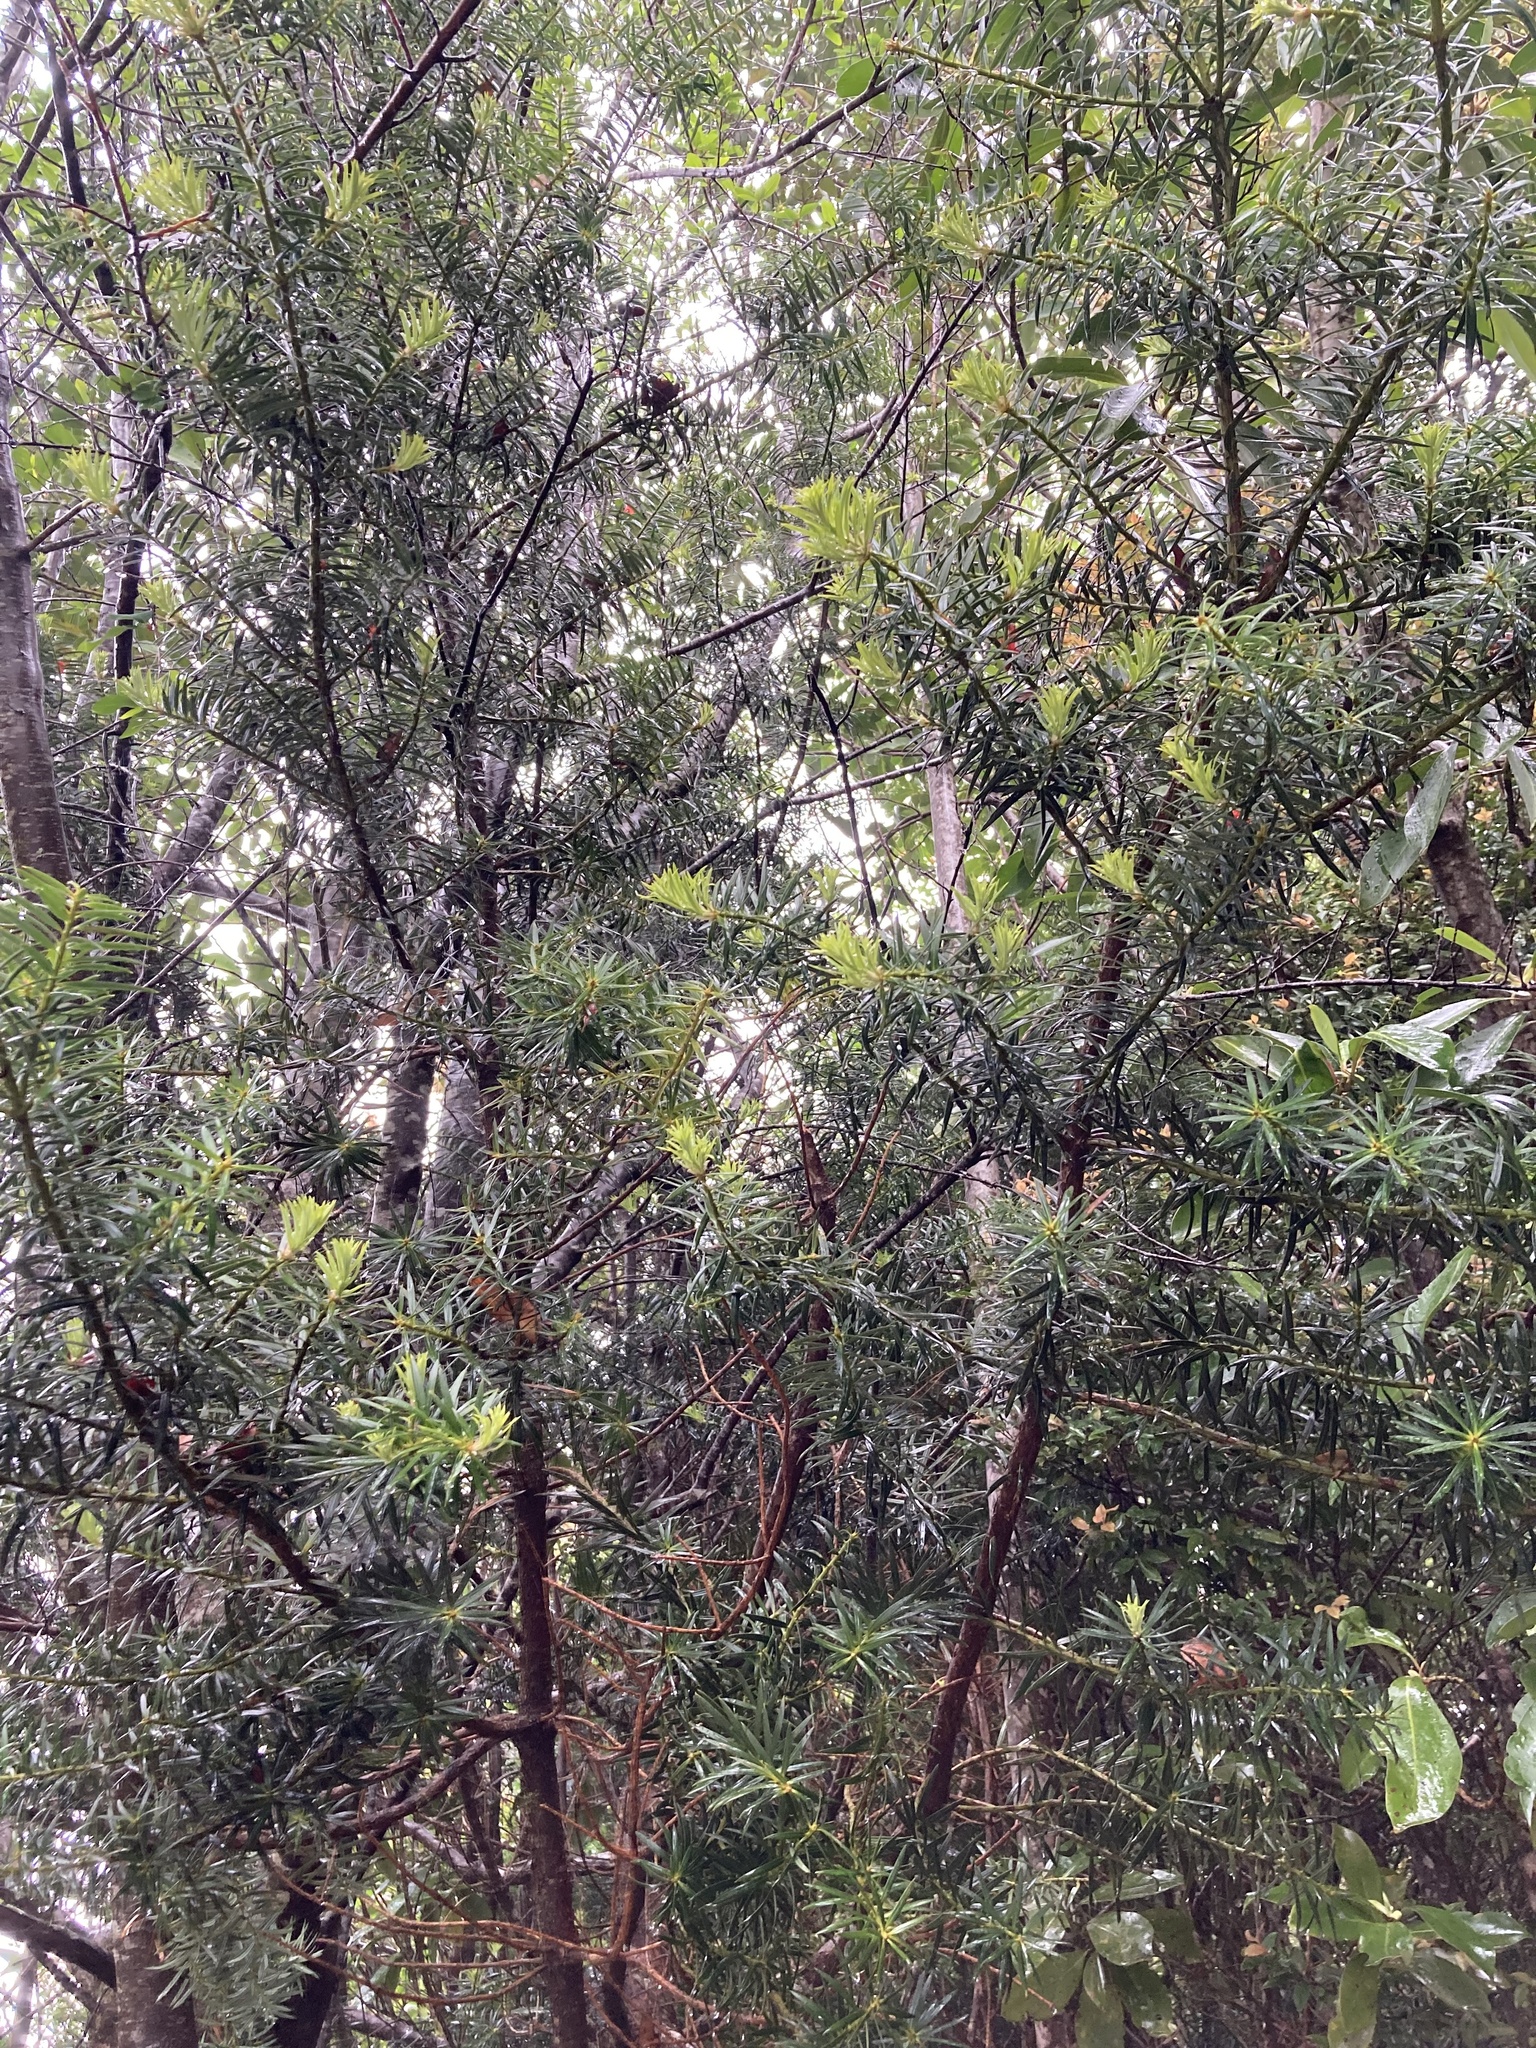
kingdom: Plantae
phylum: Tracheophyta
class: Pinopsida
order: Pinales
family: Podocarpaceae
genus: Podocarpus
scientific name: Podocarpus nubigenus
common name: Cloud podocarp
